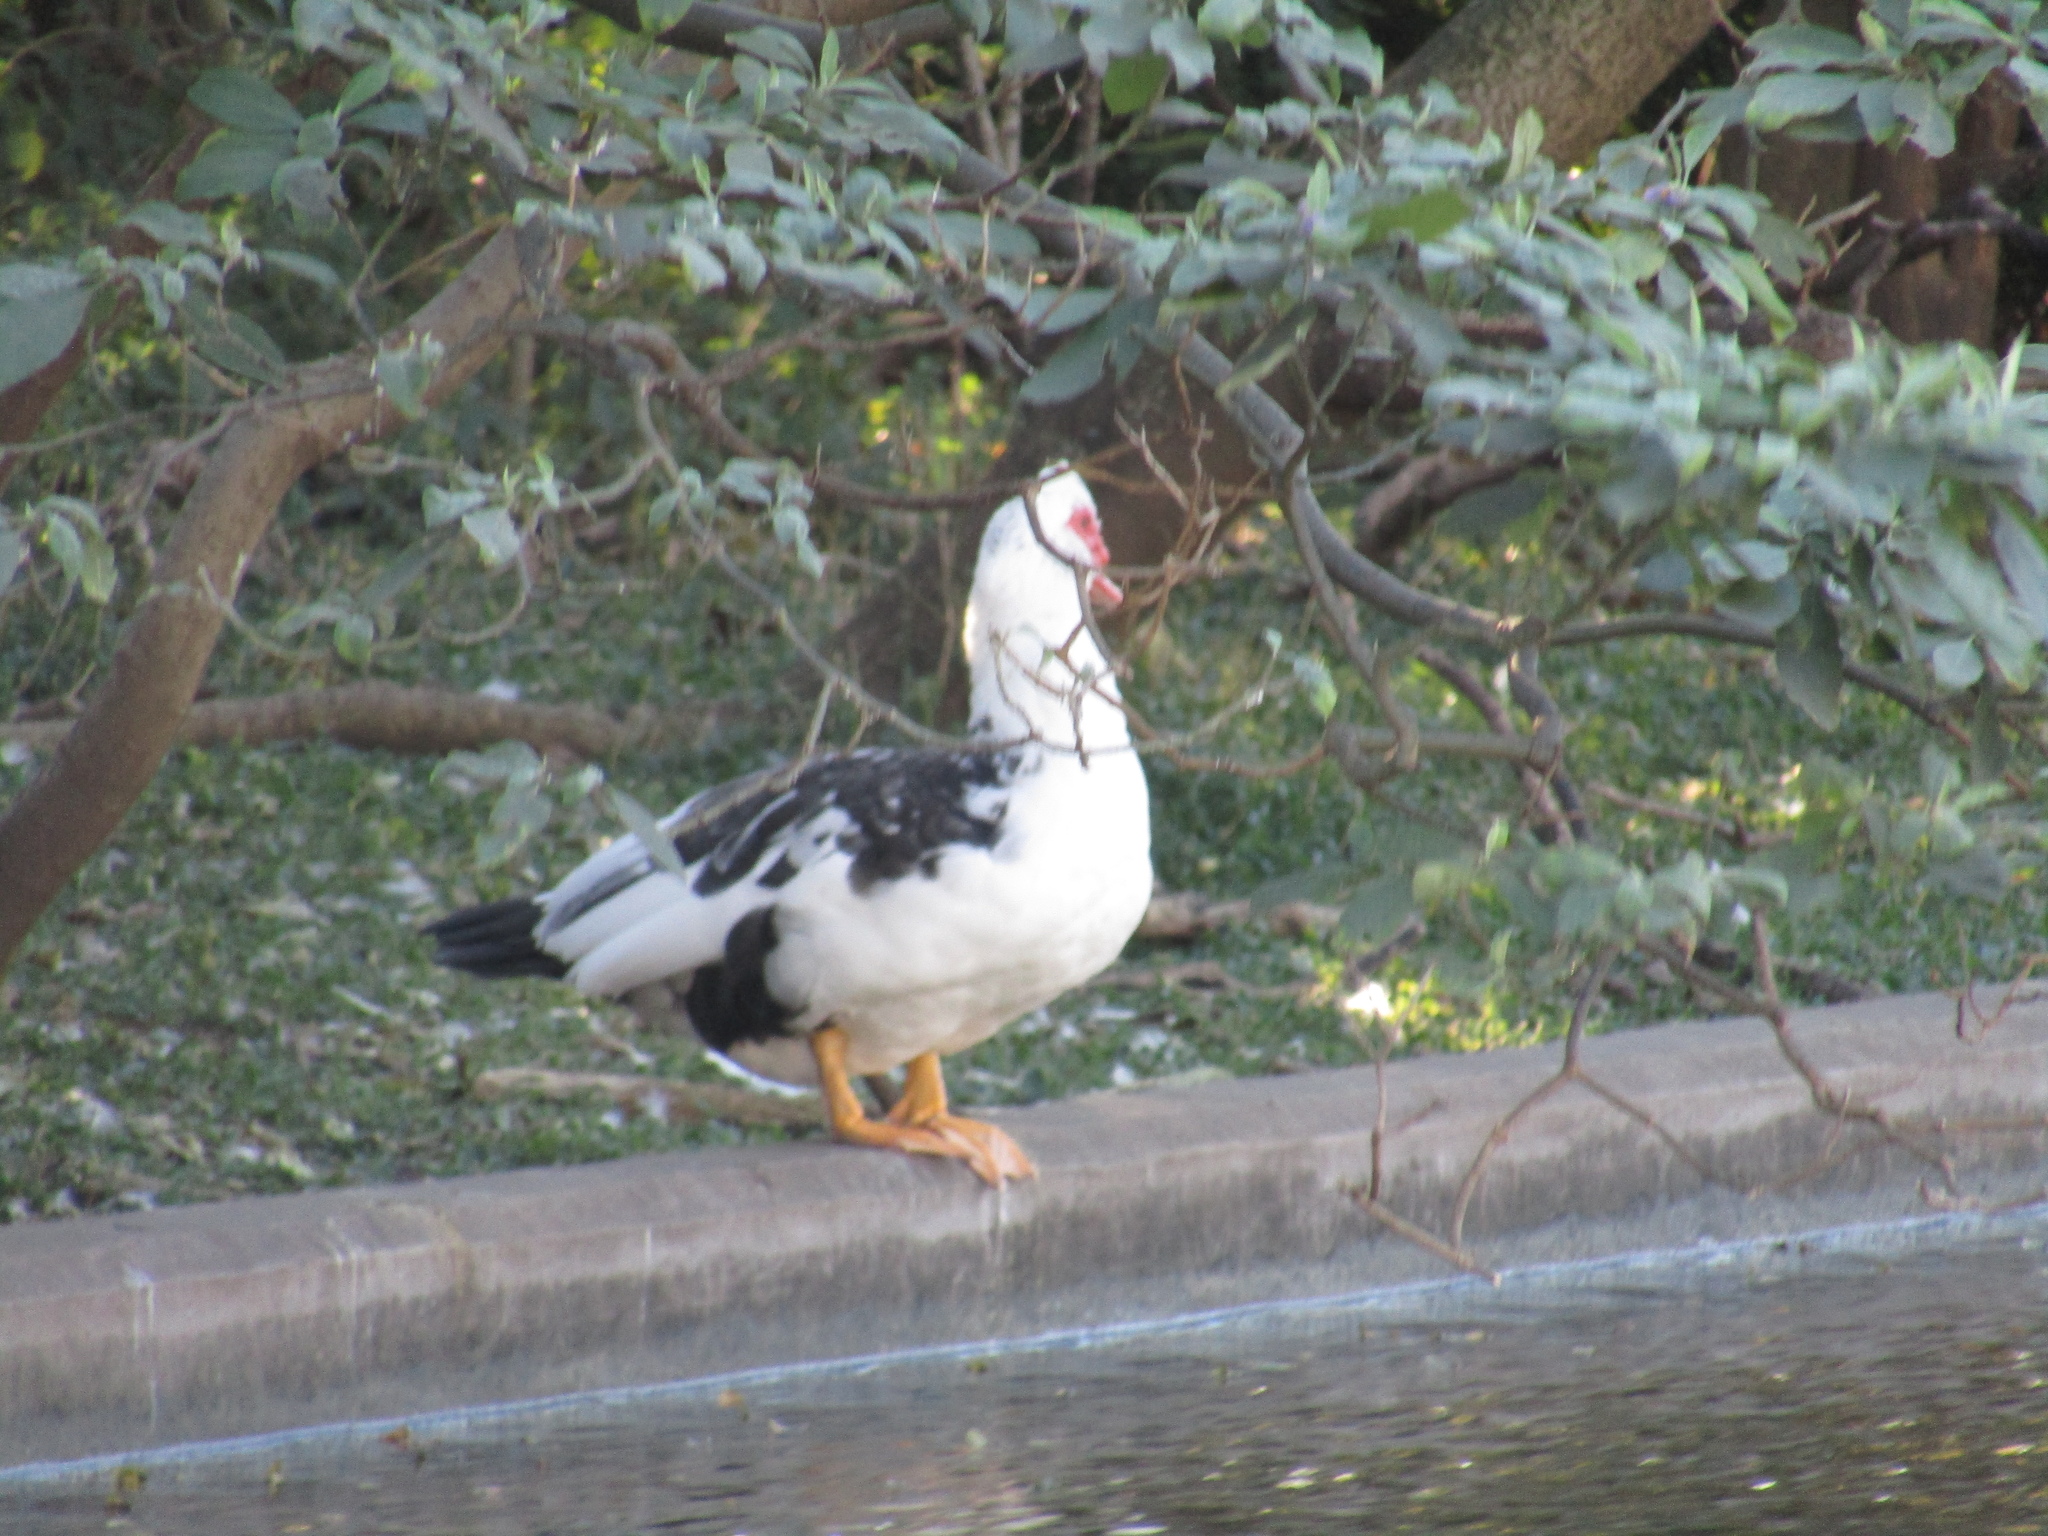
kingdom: Animalia
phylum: Chordata
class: Aves
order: Anseriformes
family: Anatidae
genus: Cairina
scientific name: Cairina moschata
